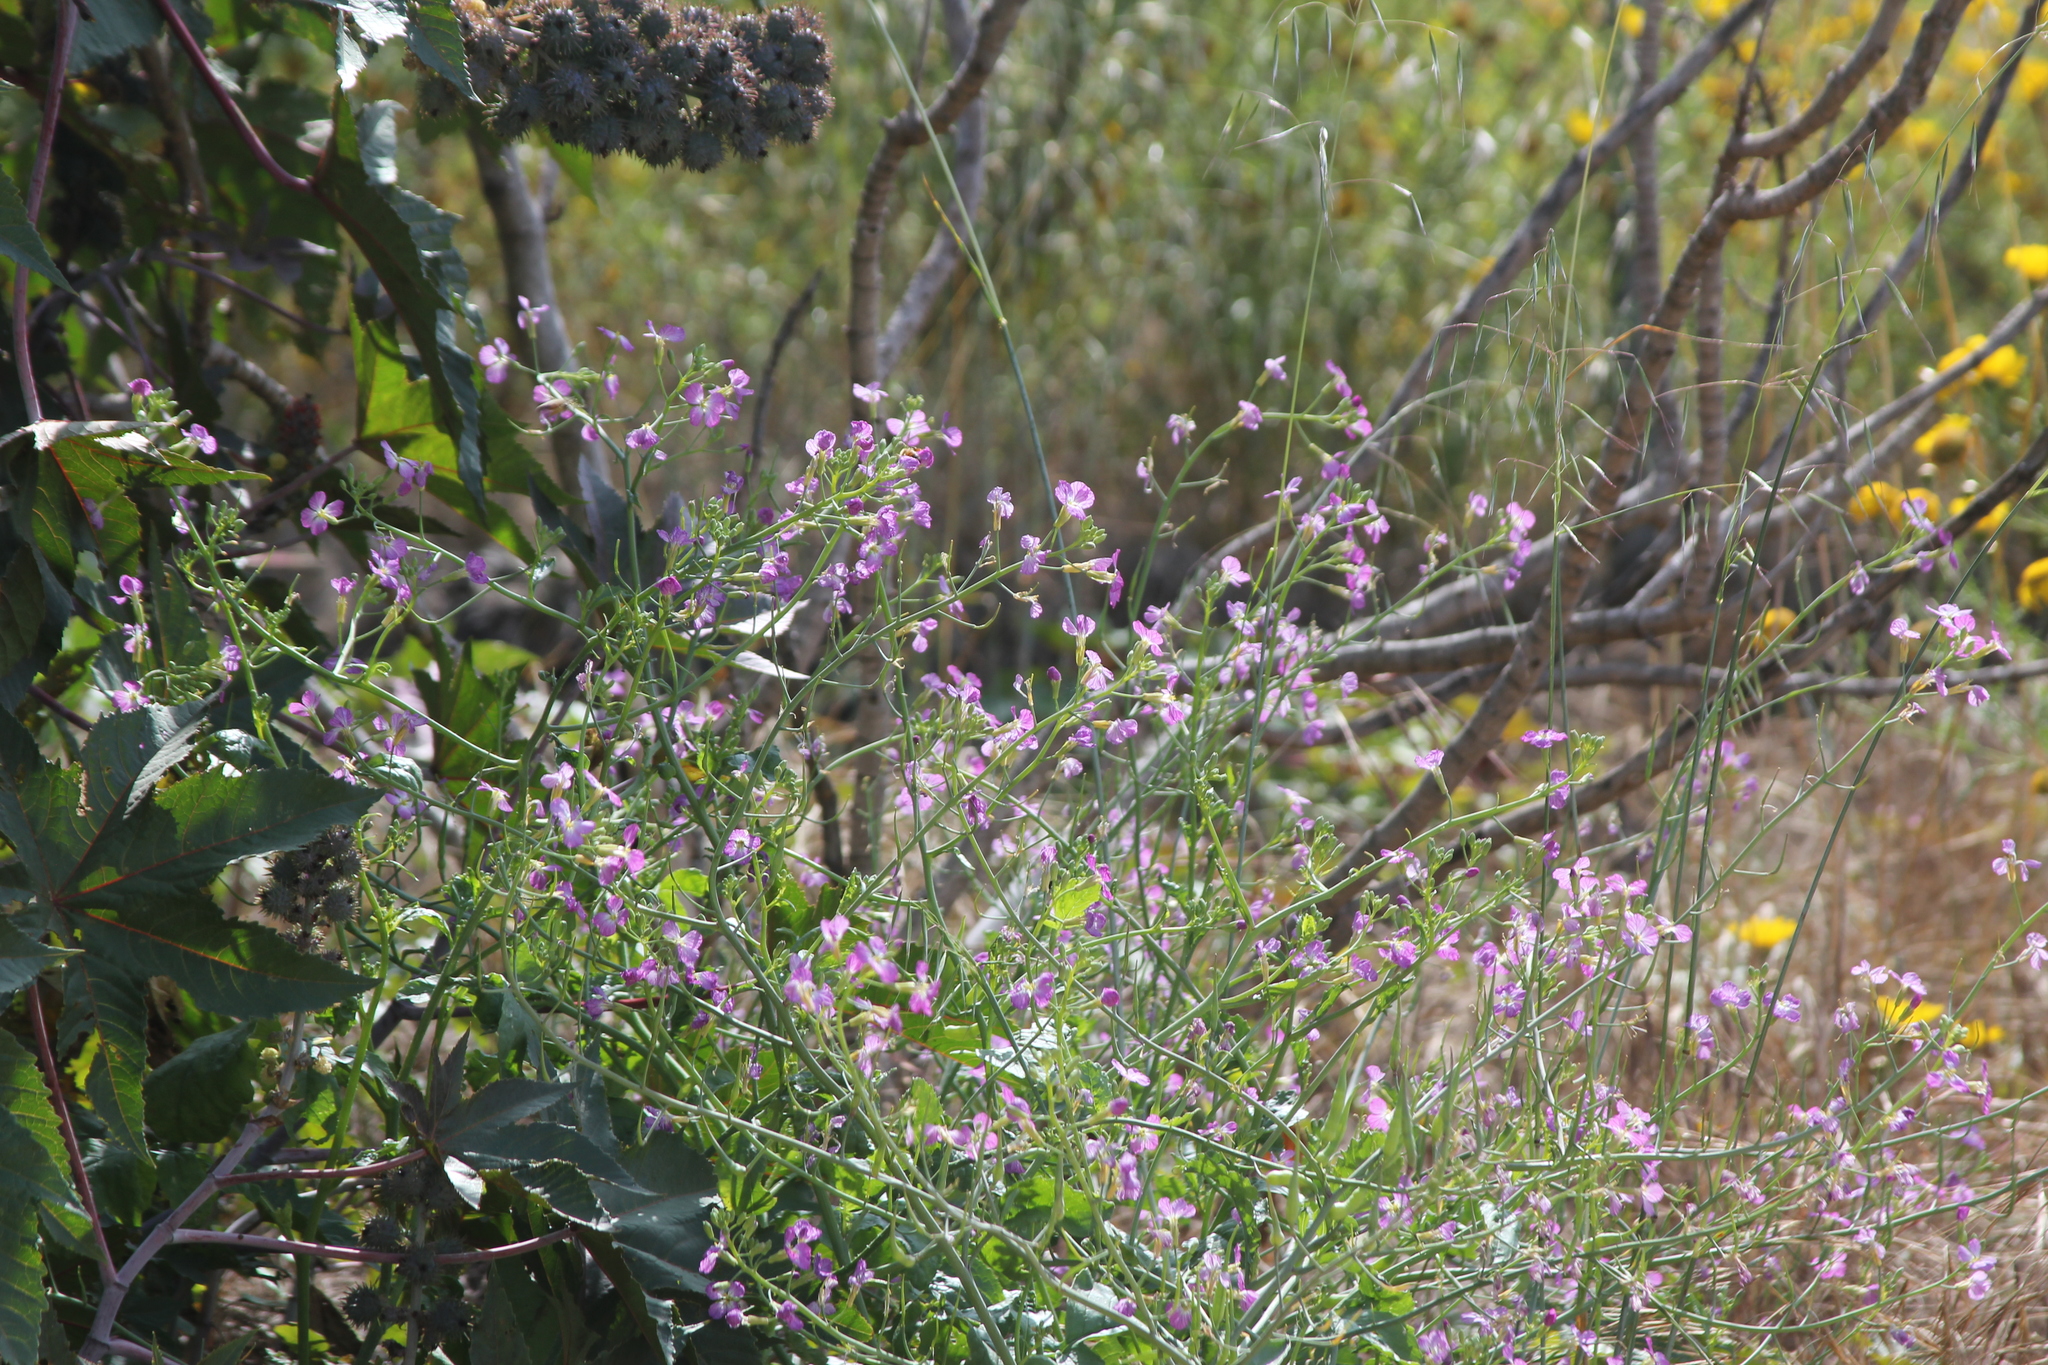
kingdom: Plantae
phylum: Tracheophyta
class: Magnoliopsida
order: Brassicales
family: Brassicaceae
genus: Raphanus
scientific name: Raphanus sativus
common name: Cultivated radish
